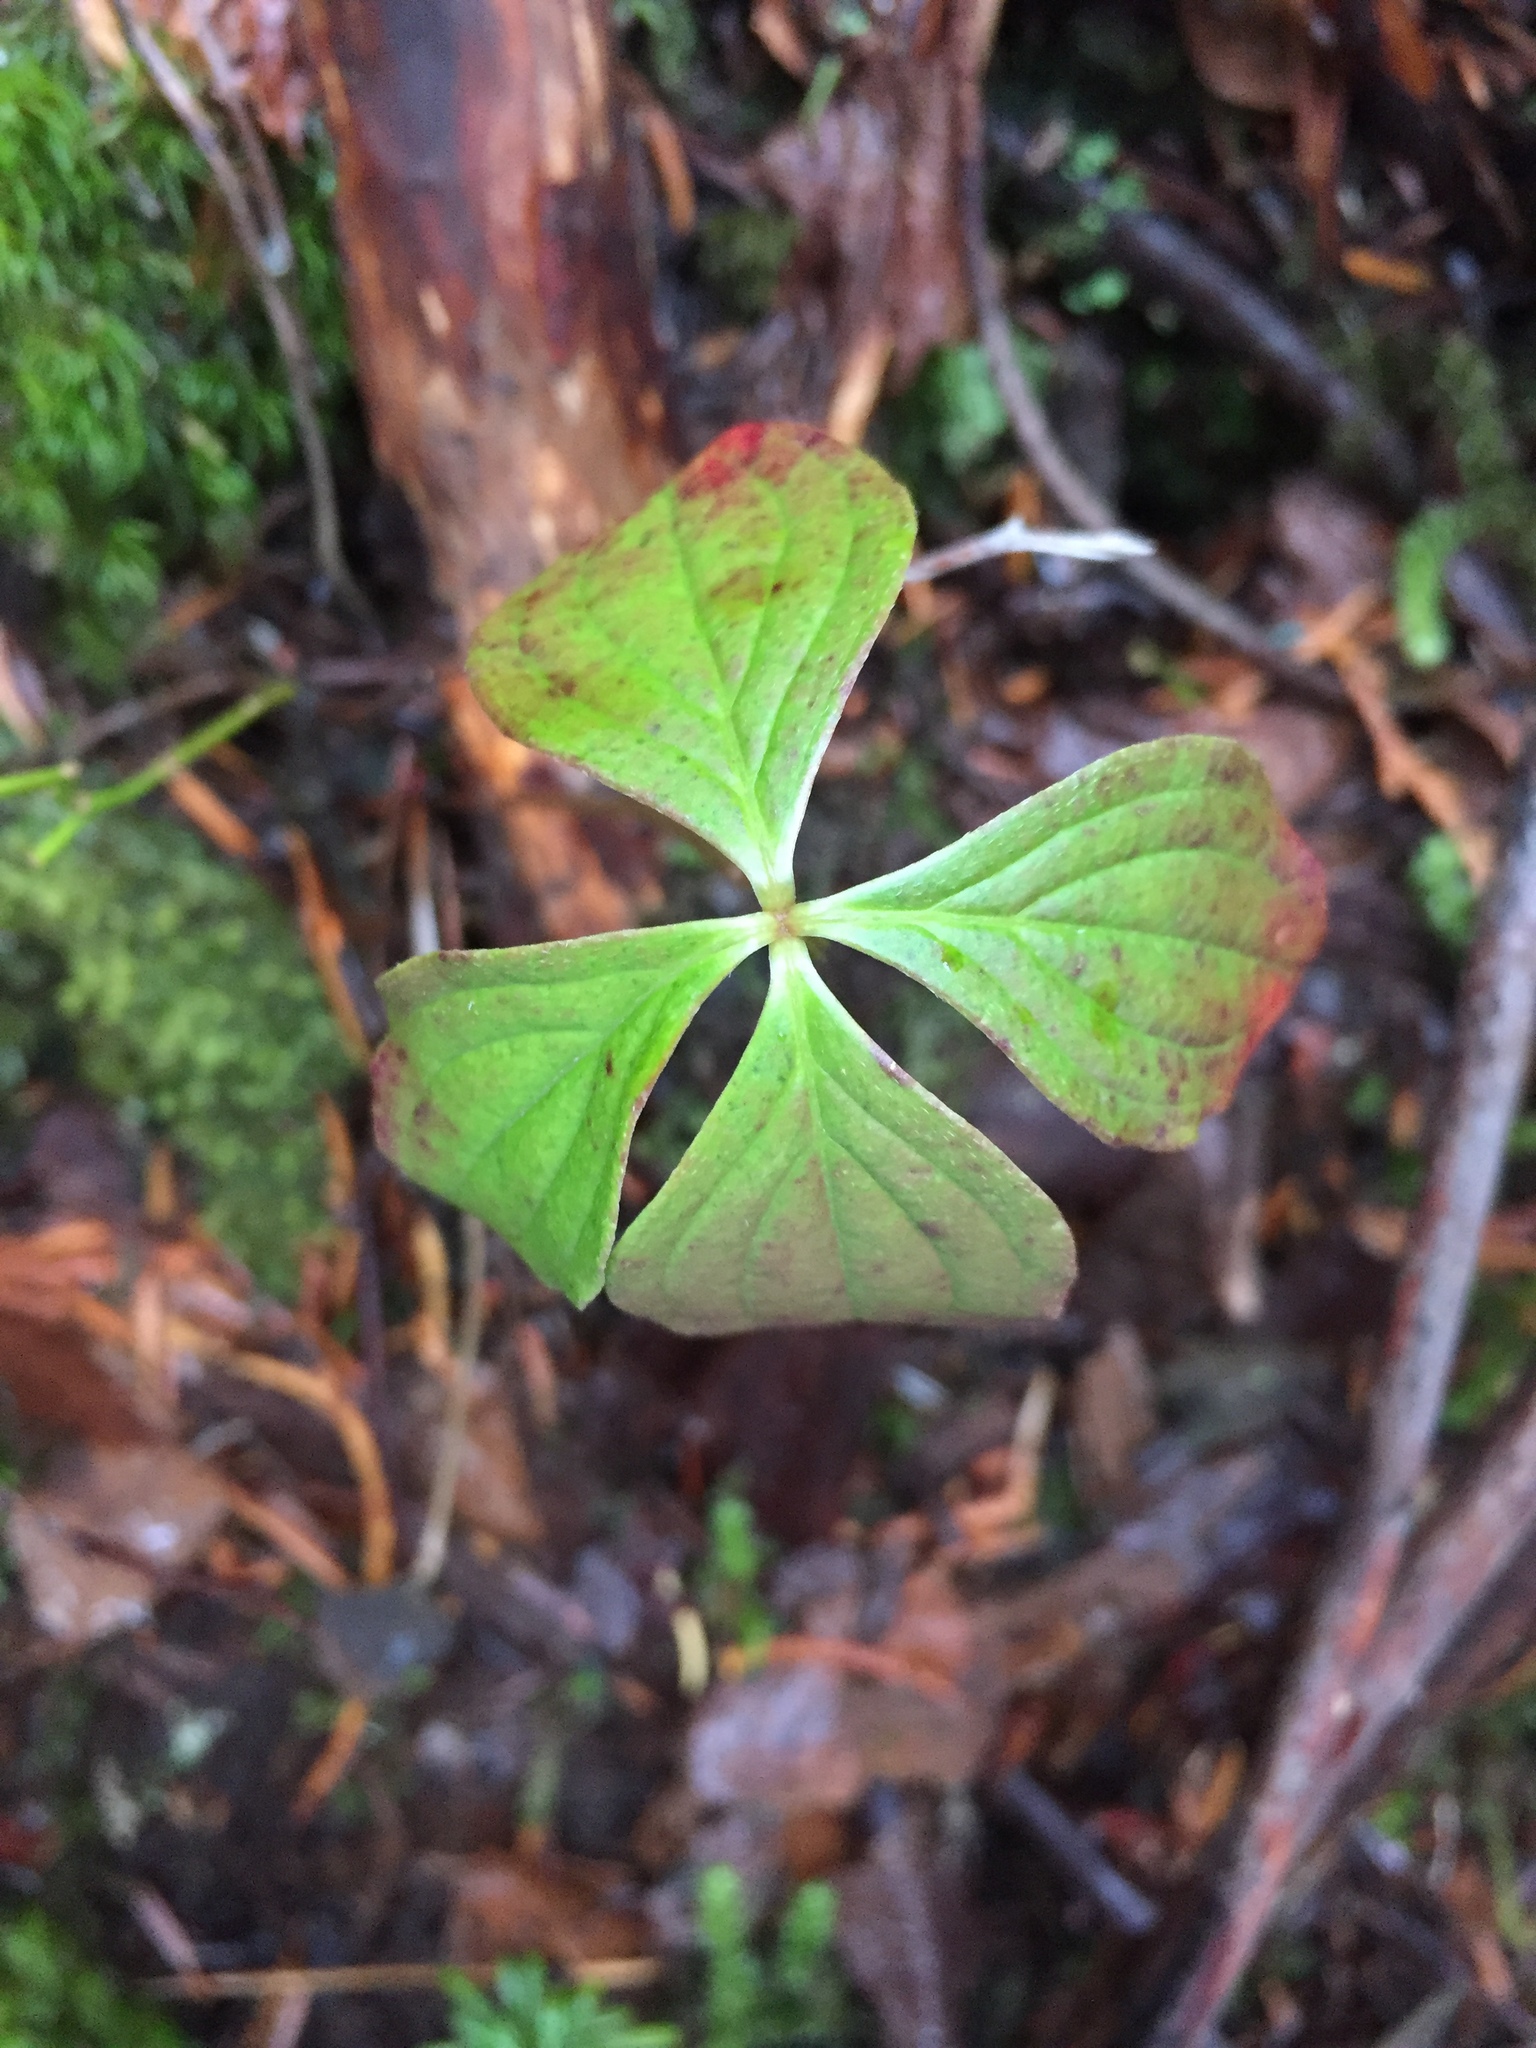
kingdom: Plantae
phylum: Tracheophyta
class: Magnoliopsida
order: Cornales
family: Cornaceae
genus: Cornus
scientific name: Cornus unalaschkensis
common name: Alaska bunchberry
